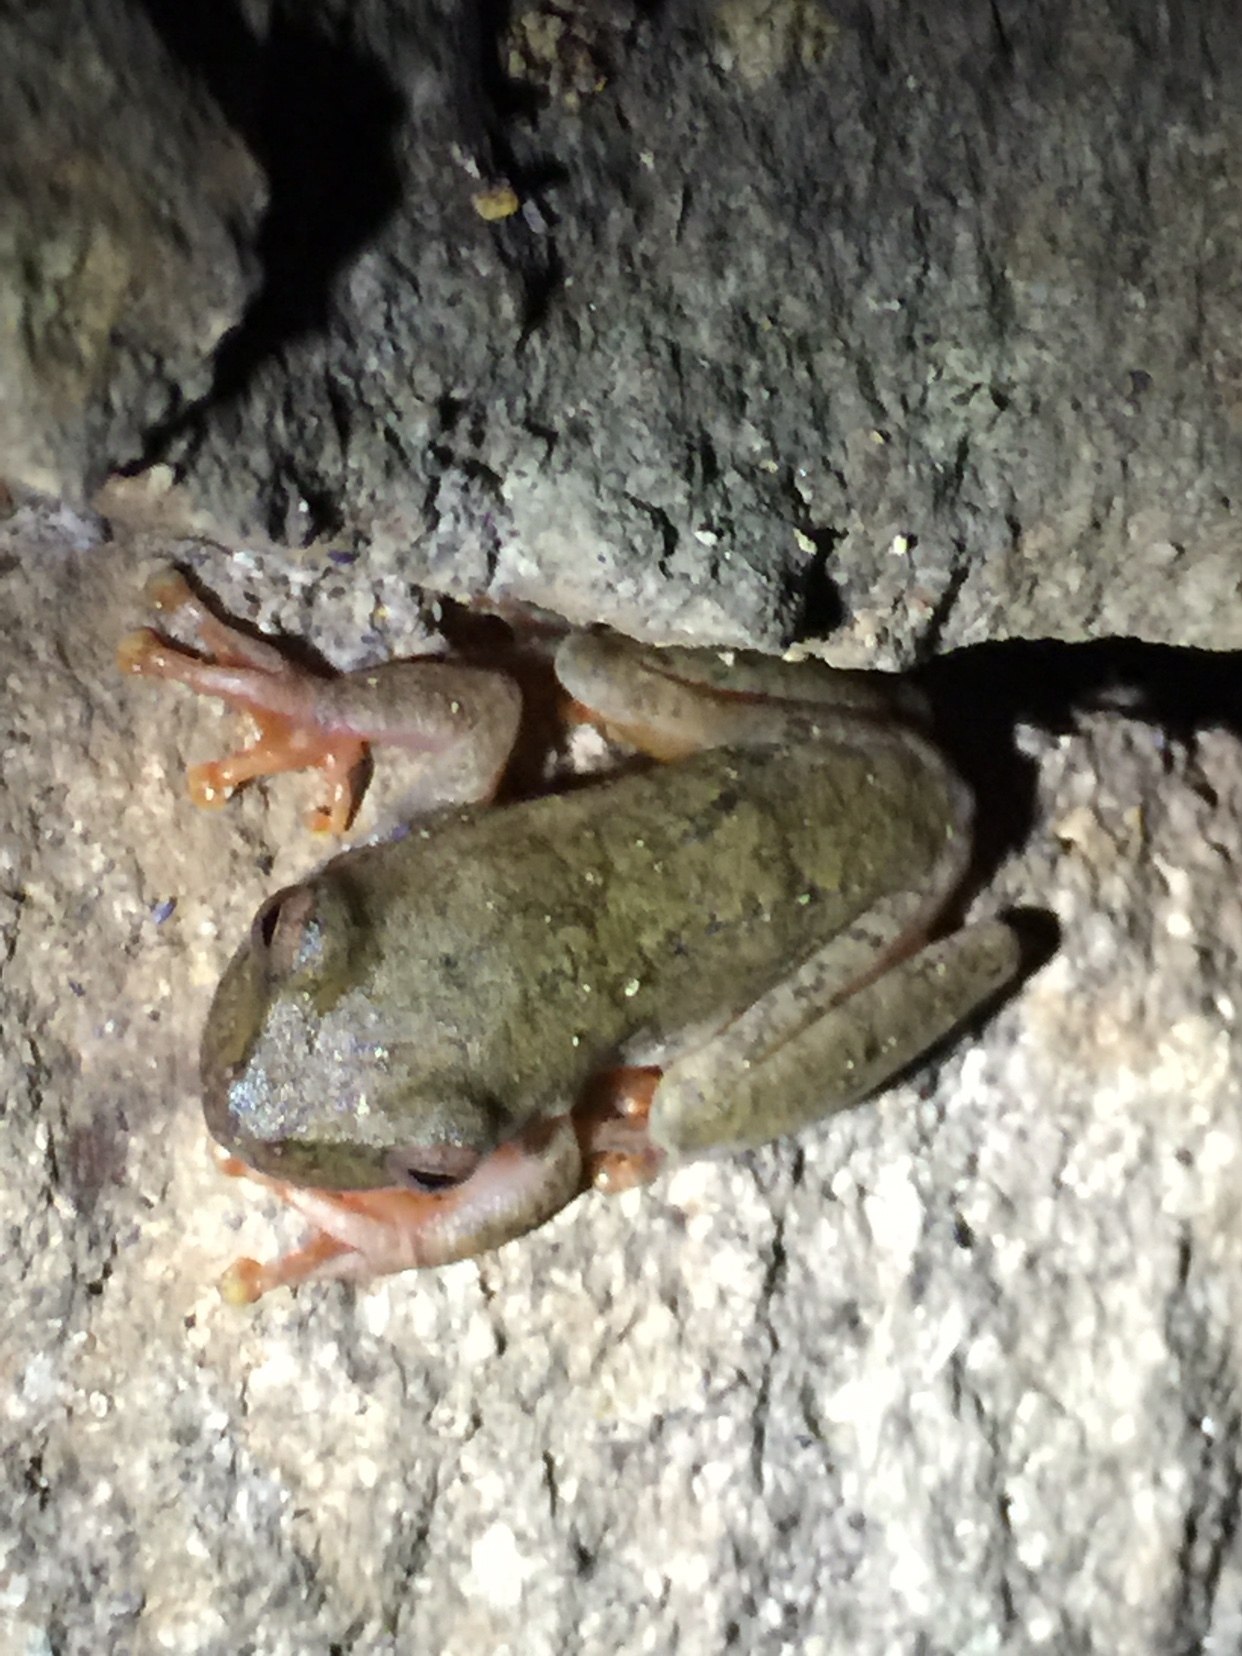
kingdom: Animalia
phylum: Chordata
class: Amphibia
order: Anura
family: Hylidae
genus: Duellmanohyla
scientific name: Duellmanohyla
